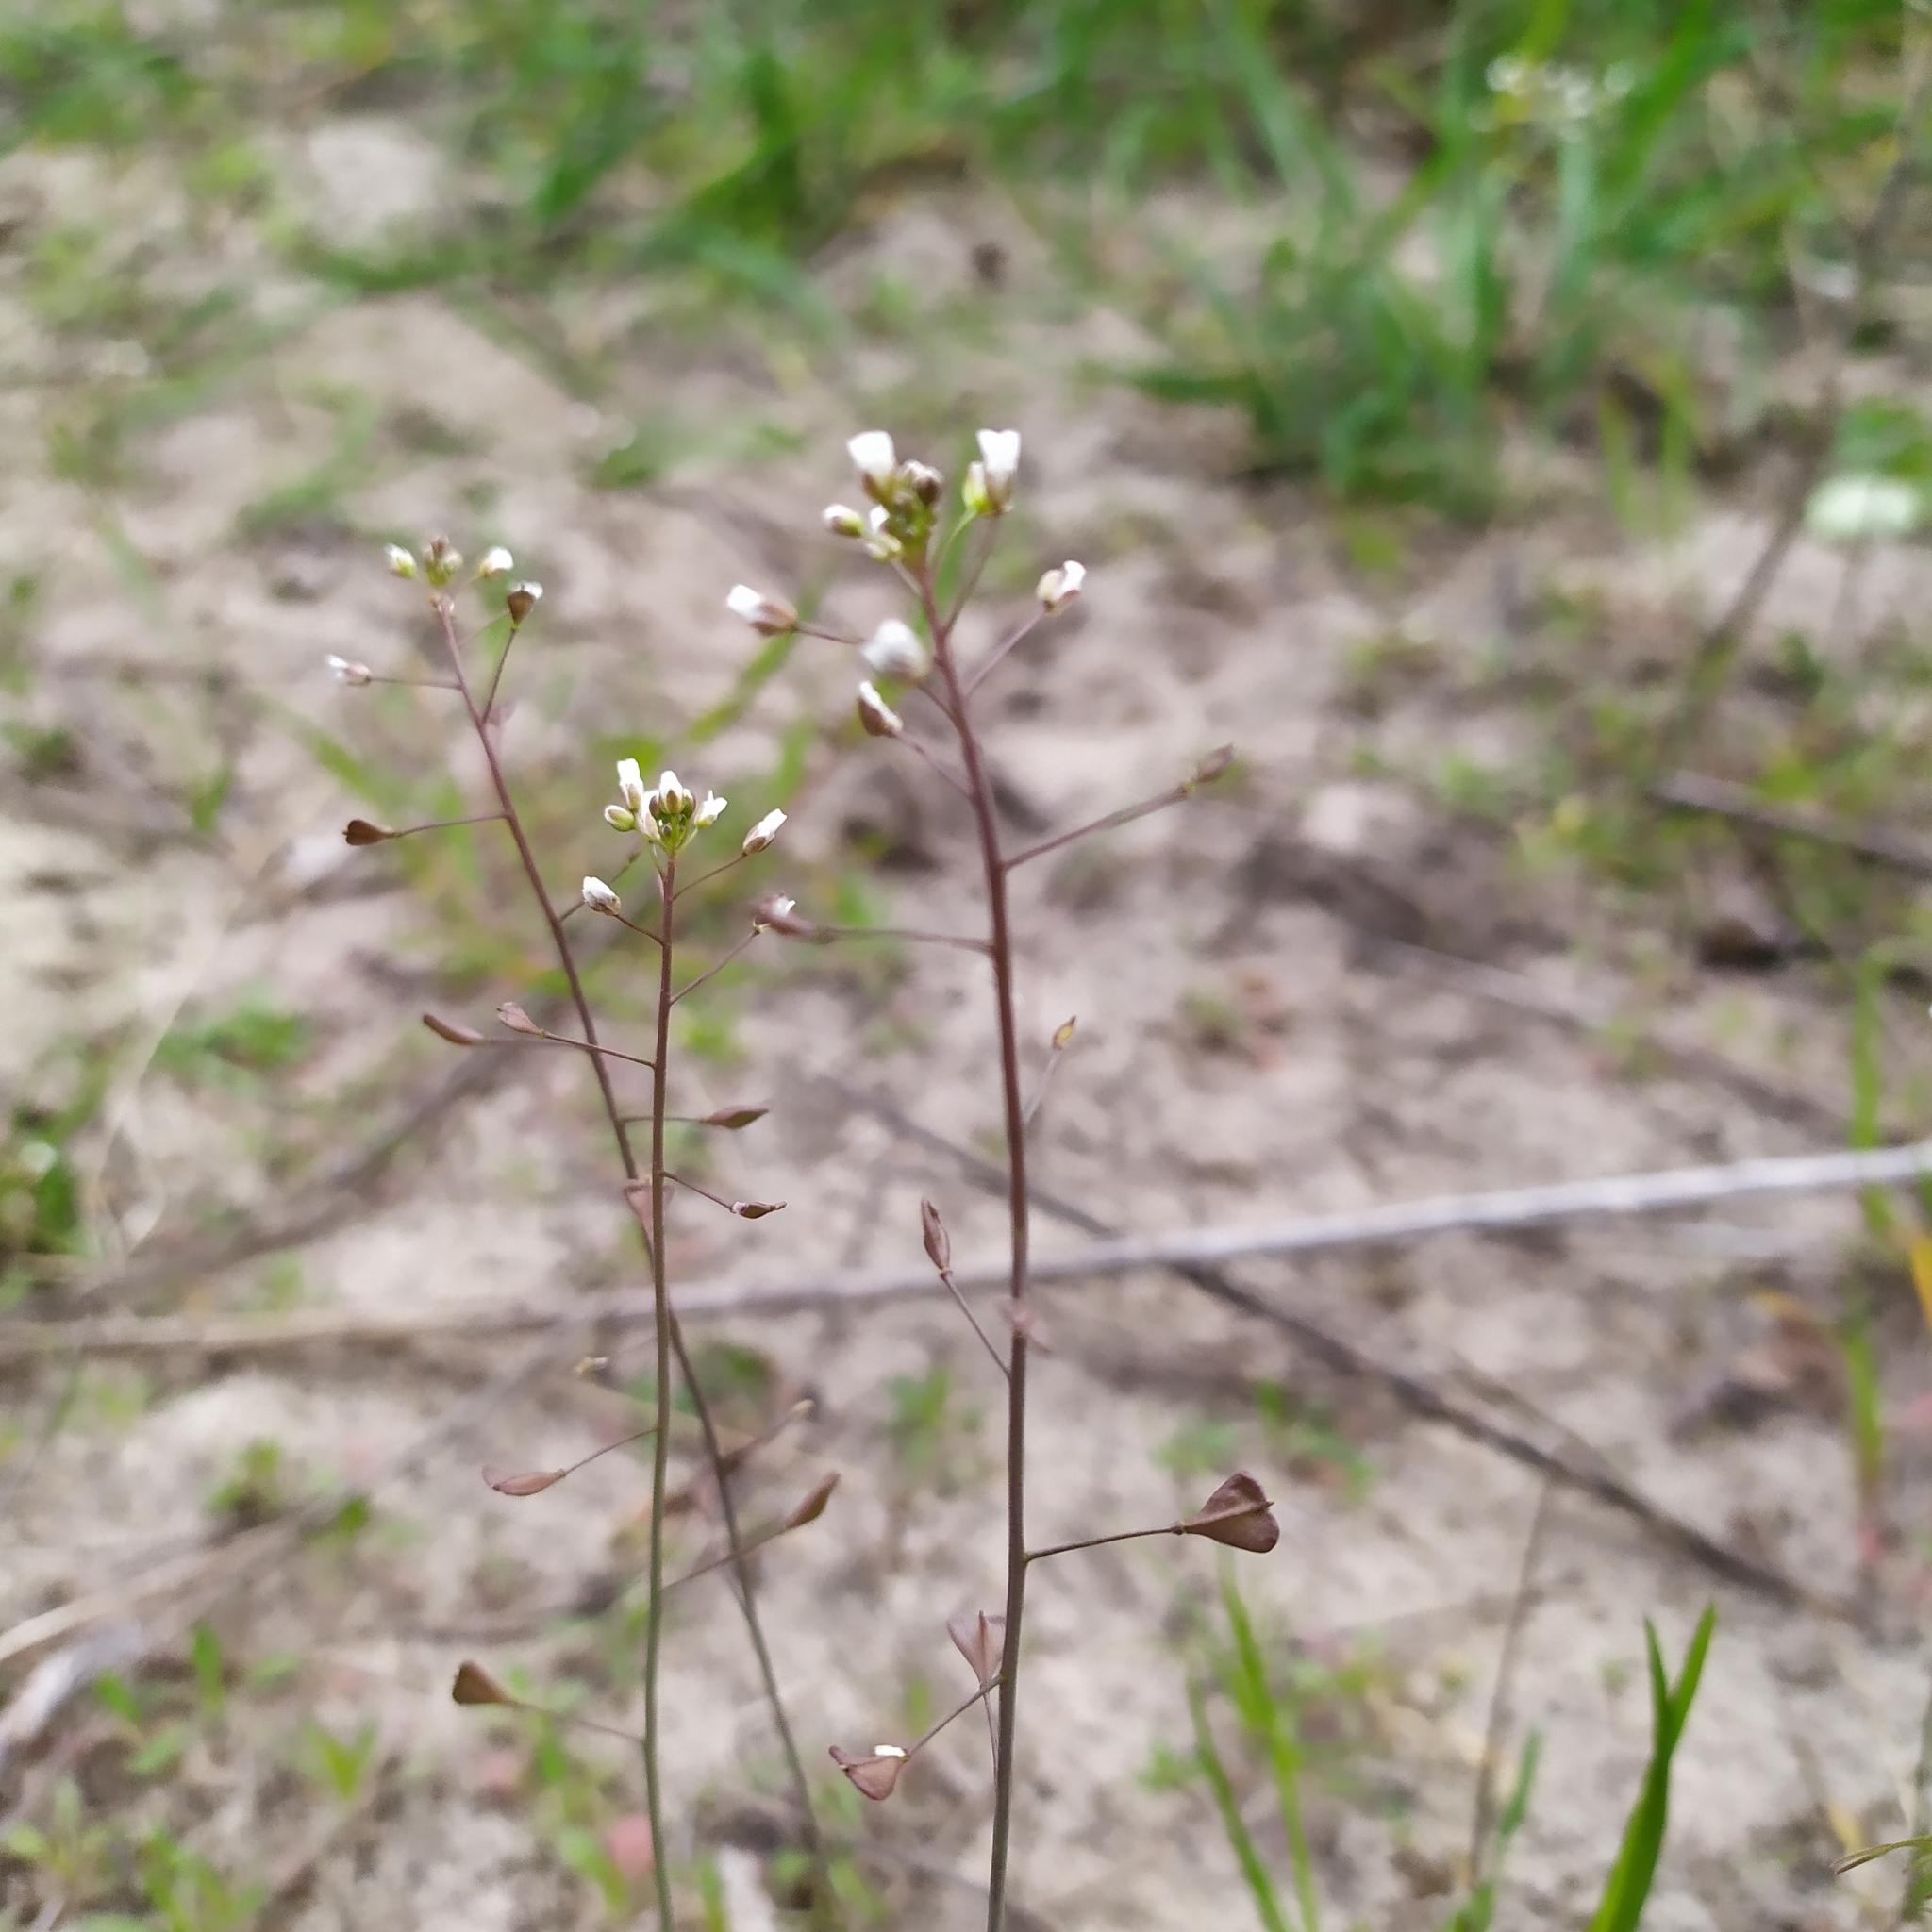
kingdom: Plantae
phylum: Tracheophyta
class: Magnoliopsida
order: Brassicales
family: Brassicaceae
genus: Capsella
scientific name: Capsella bursa-pastoris
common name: Shepherd's purse
